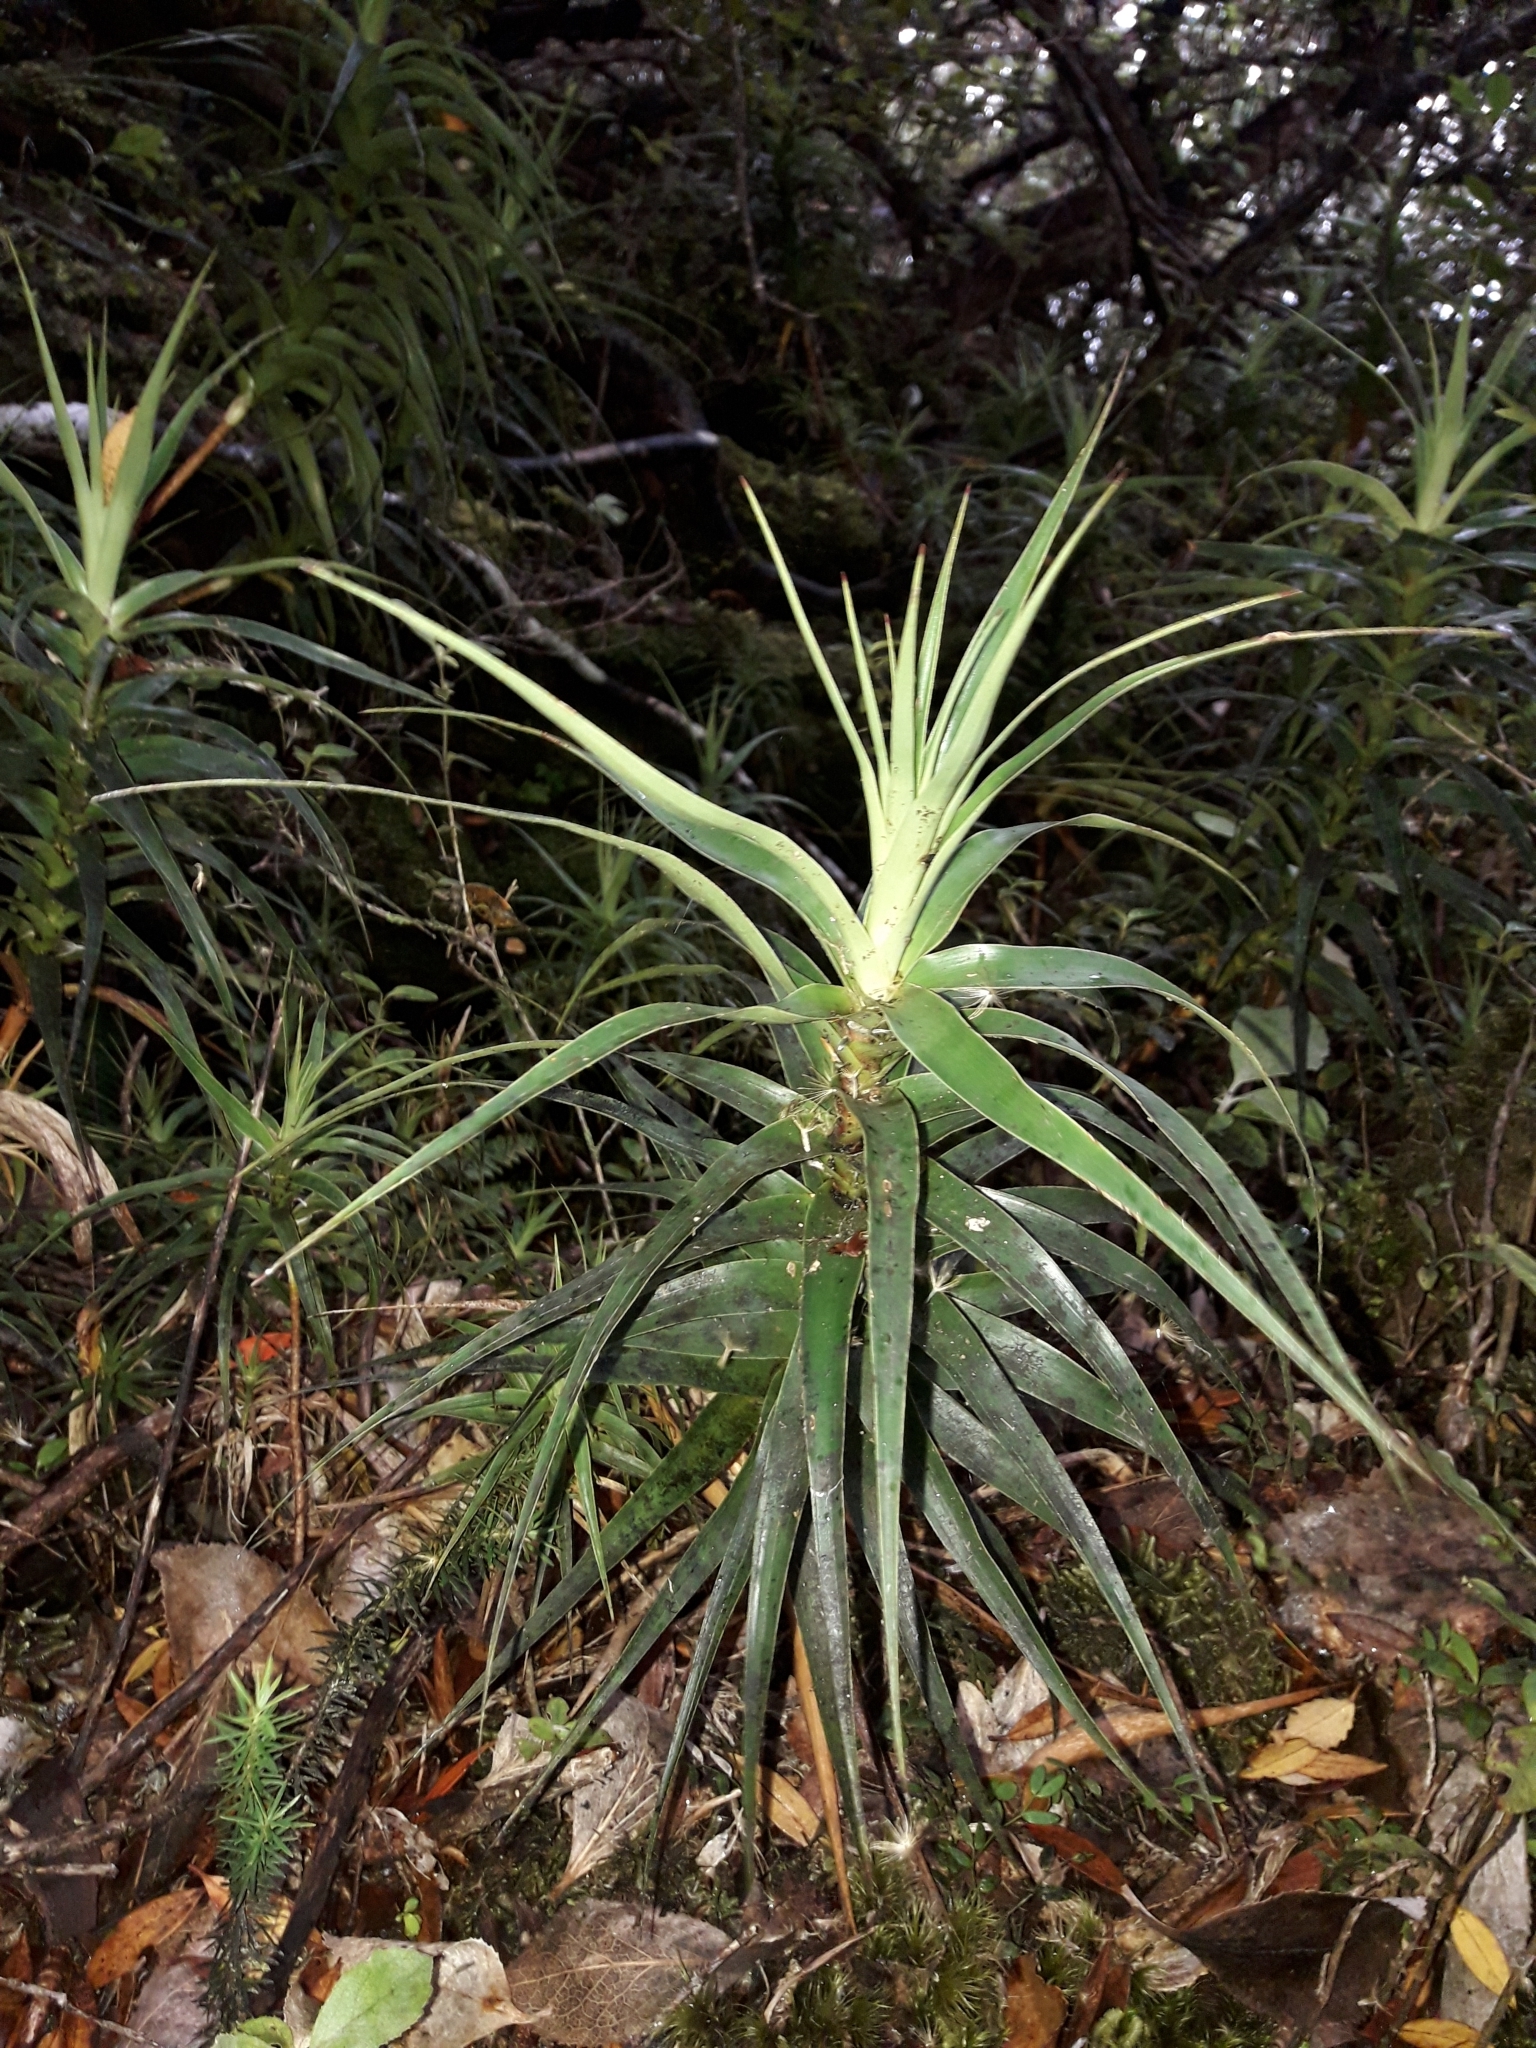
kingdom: Plantae
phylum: Tracheophyta
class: Magnoliopsida
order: Ericales
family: Ericaceae
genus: Dracophyllum
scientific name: Dracophyllum menziesii
